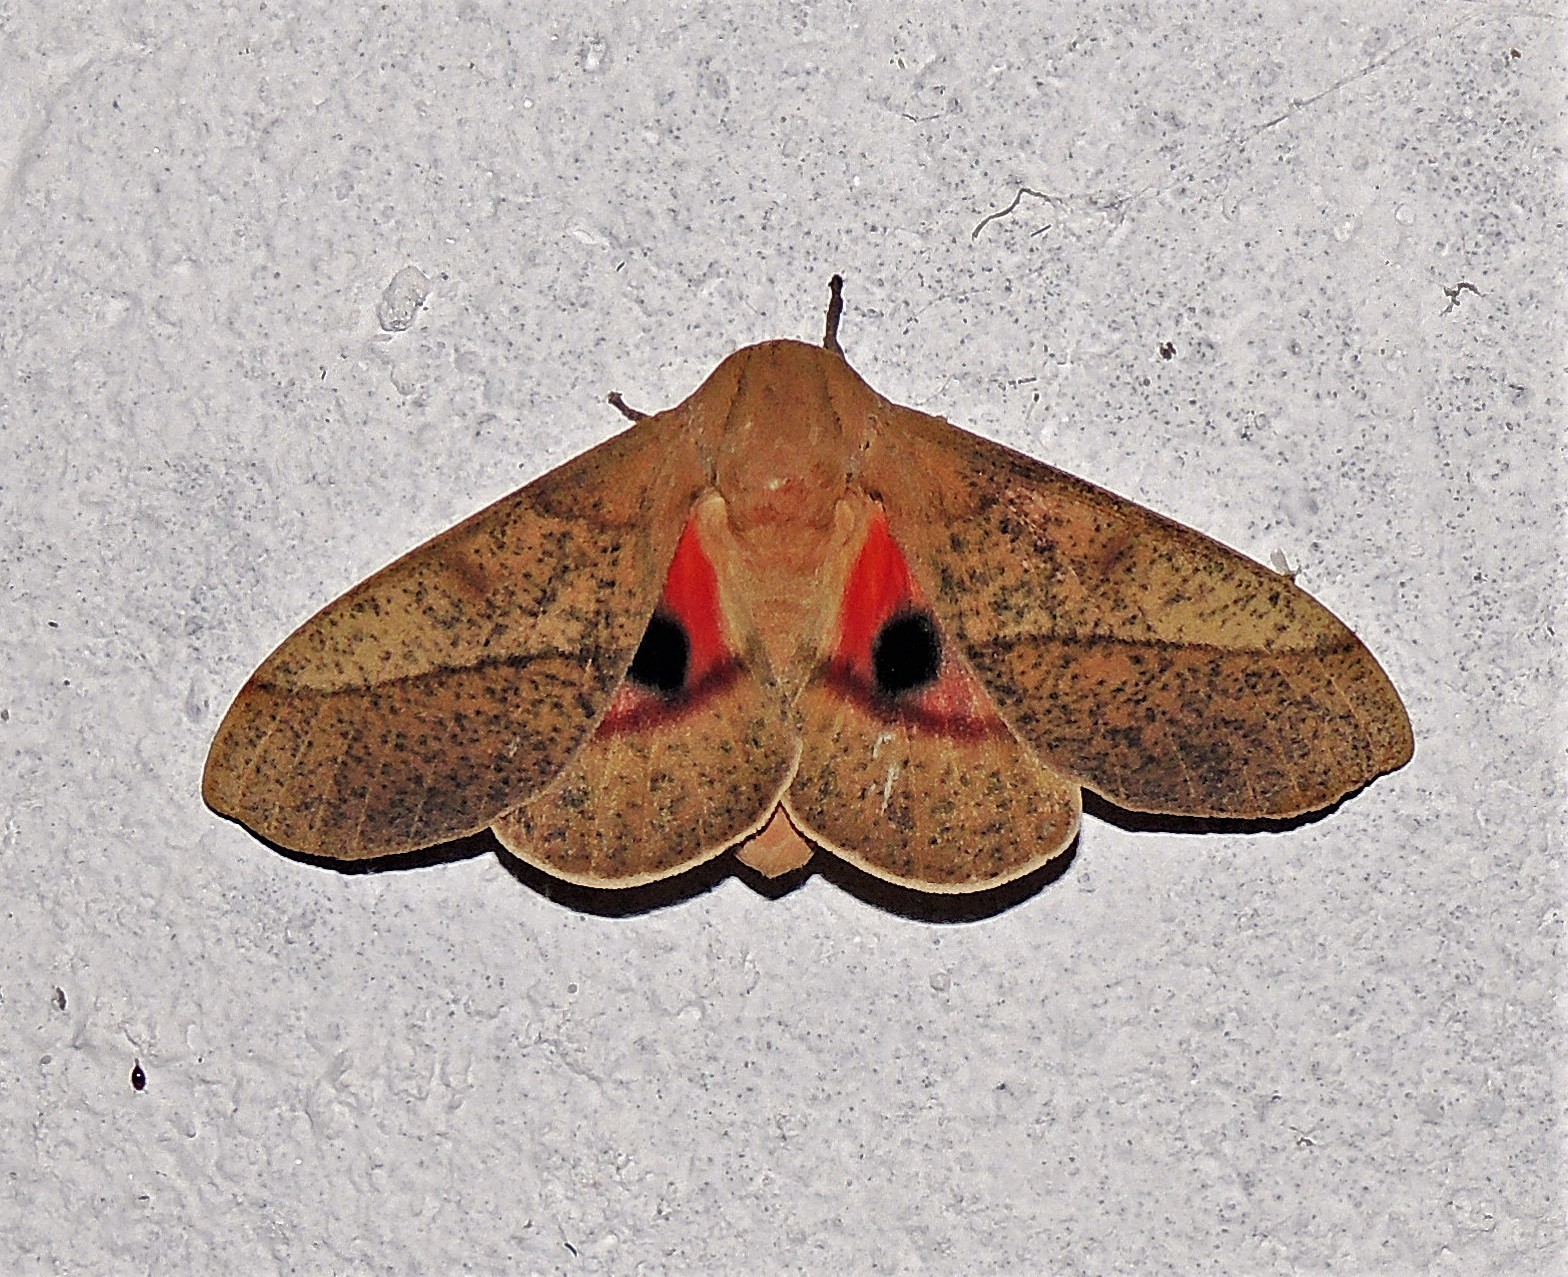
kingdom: Animalia
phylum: Arthropoda
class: Insecta
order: Lepidoptera
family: Saturniidae
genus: Syssphinx
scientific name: Syssphinx molina
